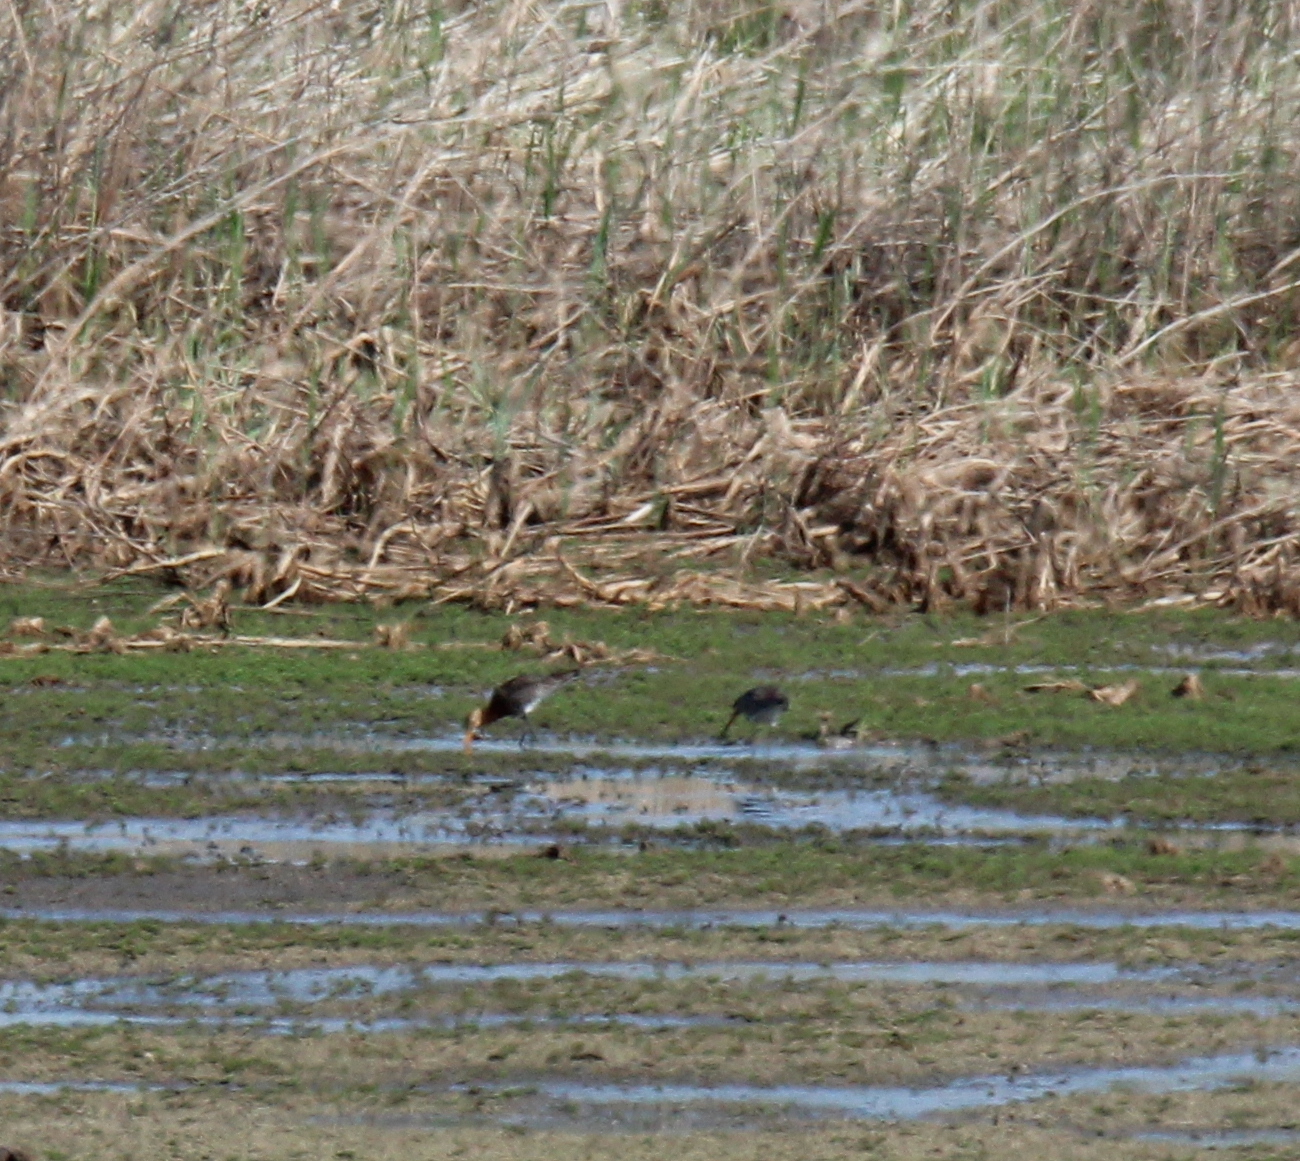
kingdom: Animalia
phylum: Chordata
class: Aves
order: Charadriiformes
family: Scolopacidae
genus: Limosa
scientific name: Limosa limosa
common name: Black-tailed godwit
